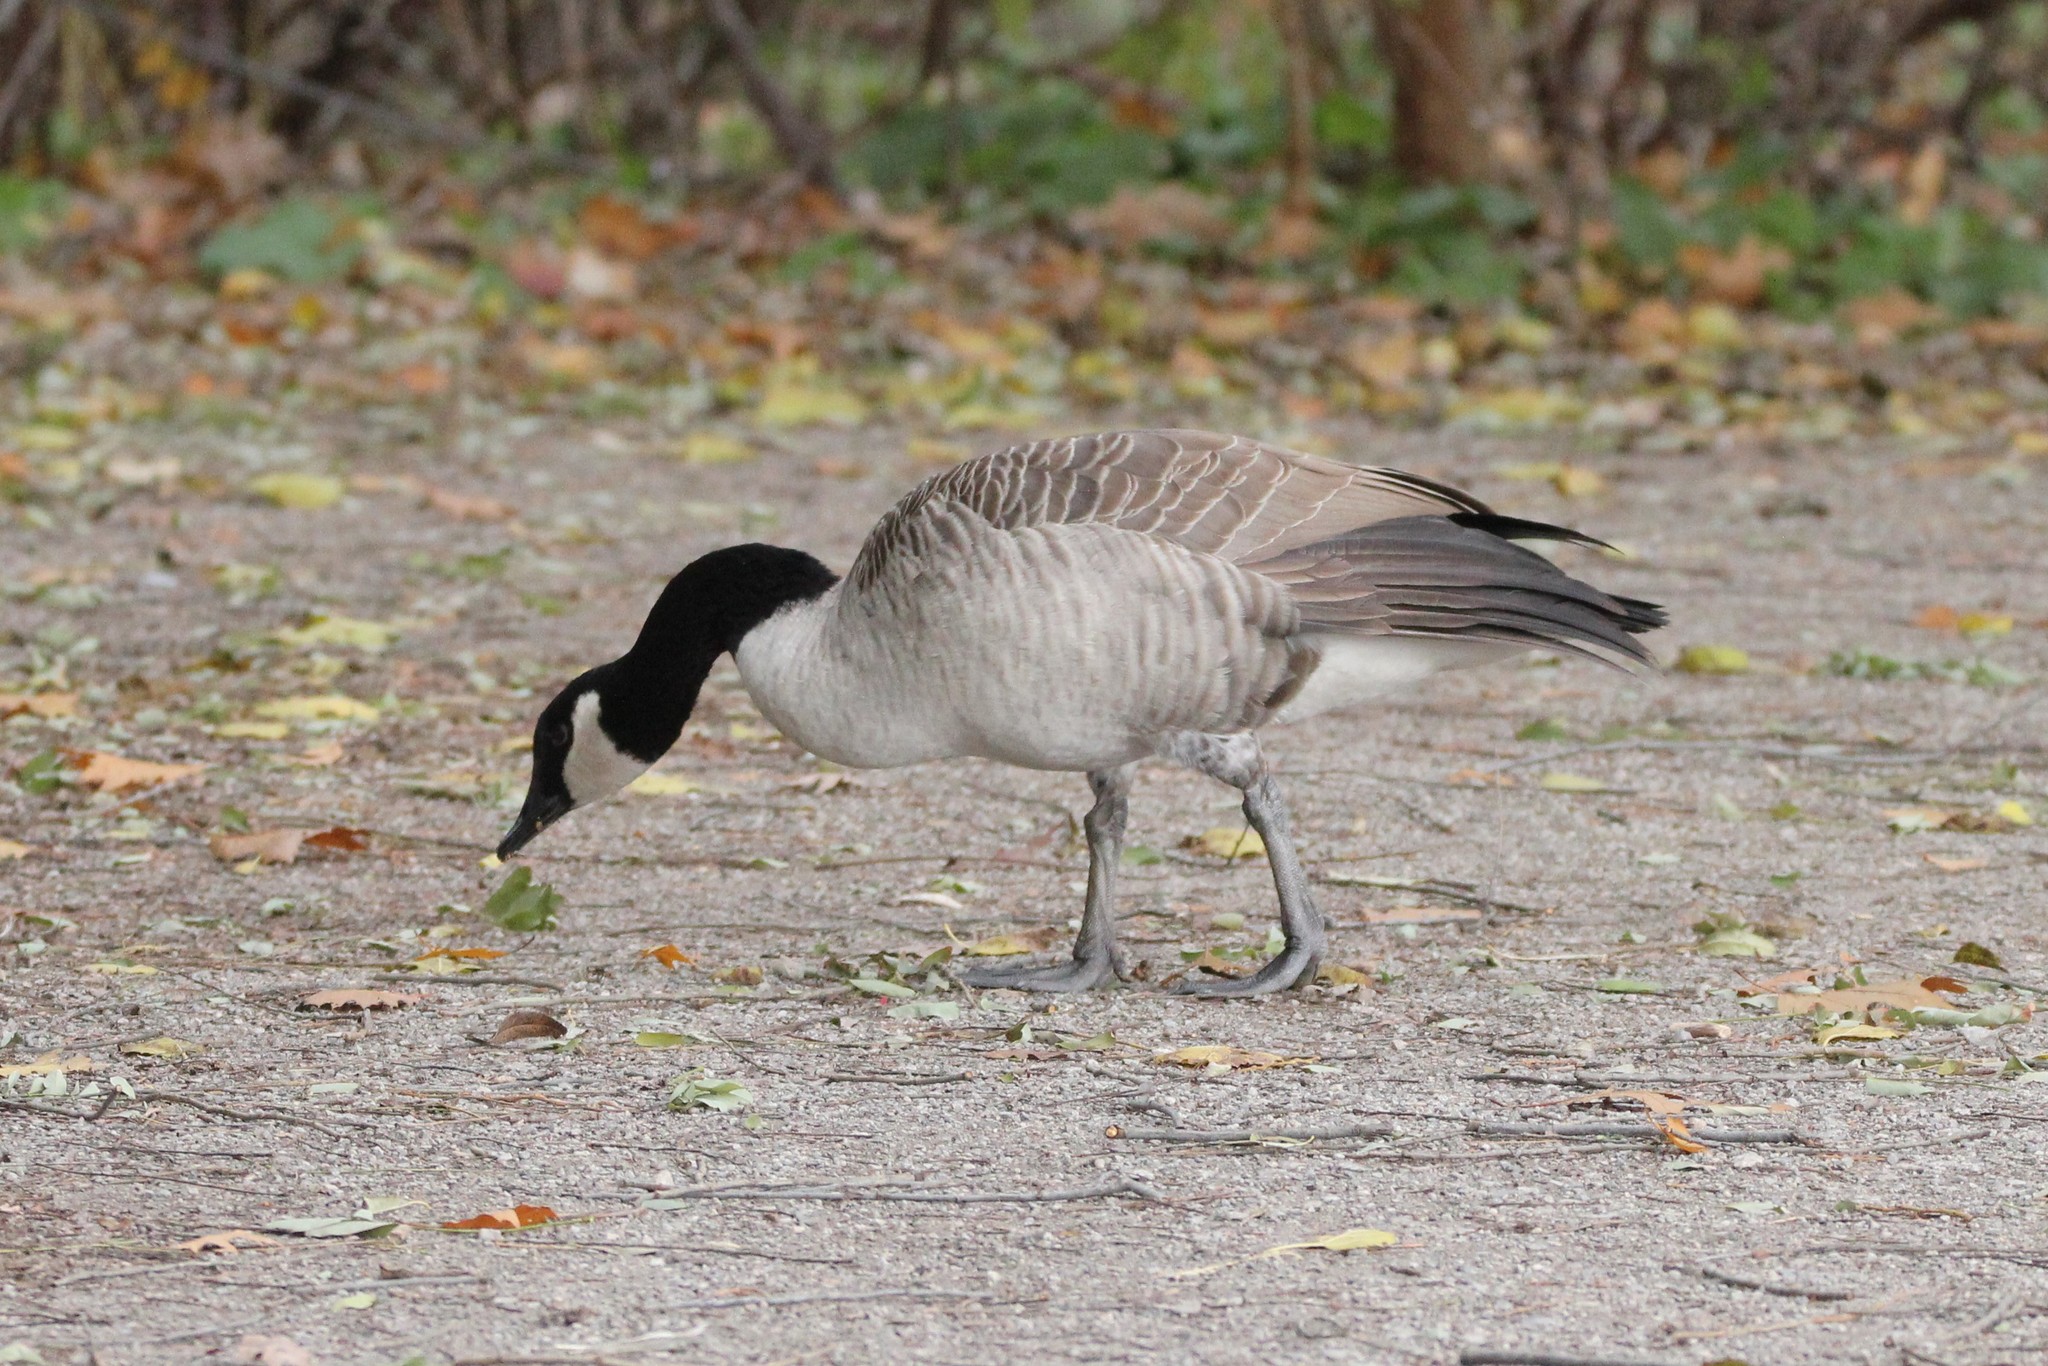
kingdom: Animalia
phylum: Chordata
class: Aves
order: Anseriformes
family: Anatidae
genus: Branta
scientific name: Branta canadensis
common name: Canada goose
